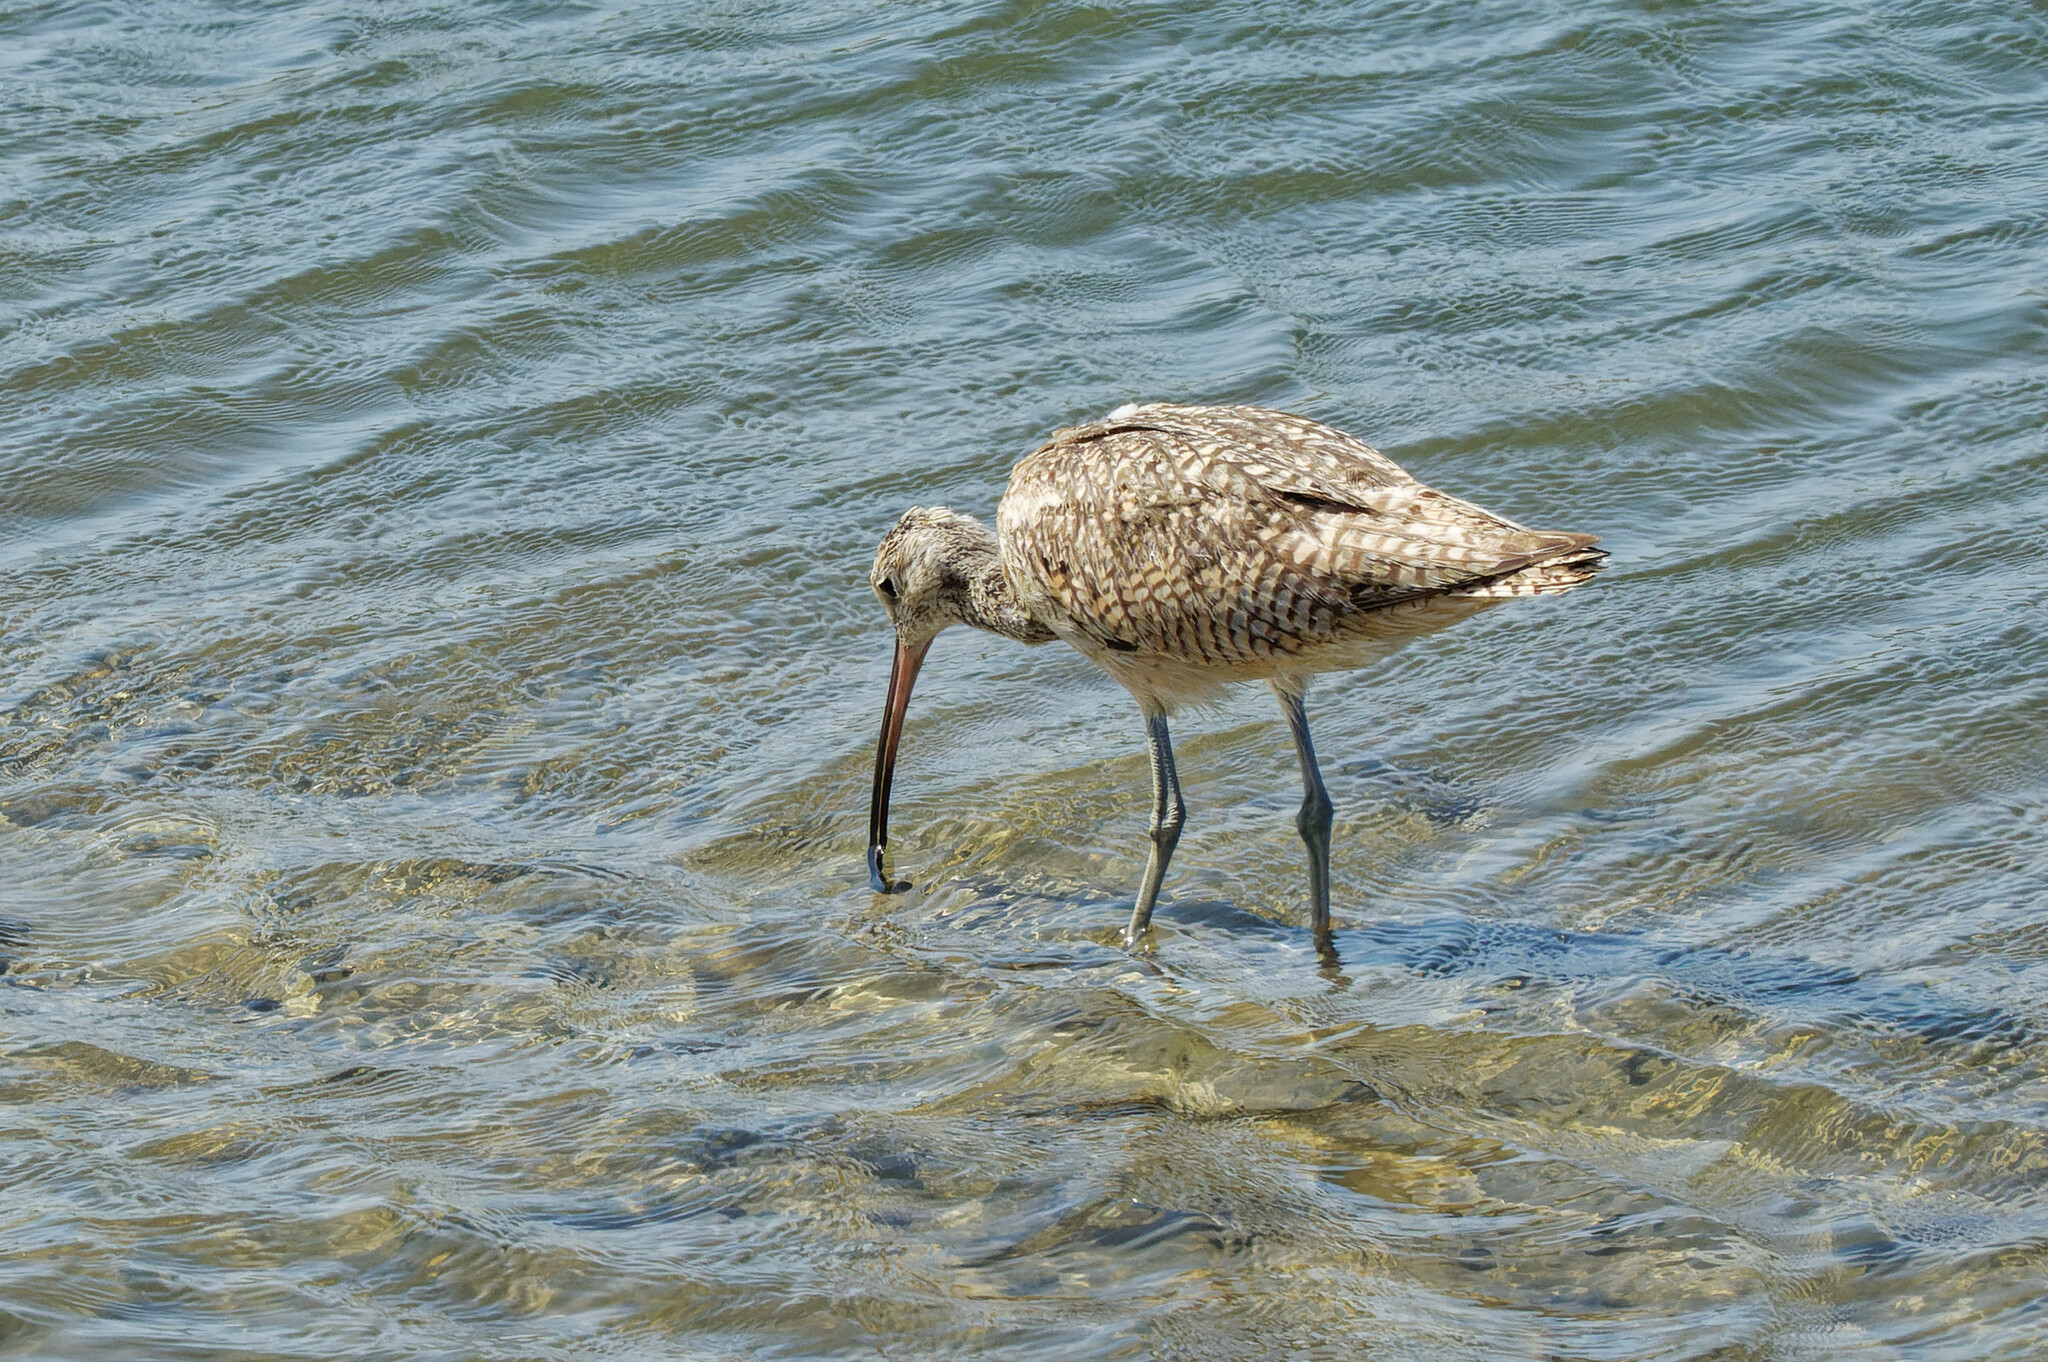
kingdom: Animalia
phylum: Chordata
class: Aves
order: Charadriiformes
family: Scolopacidae
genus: Numenius
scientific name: Numenius americanus
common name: Long-billed curlew
